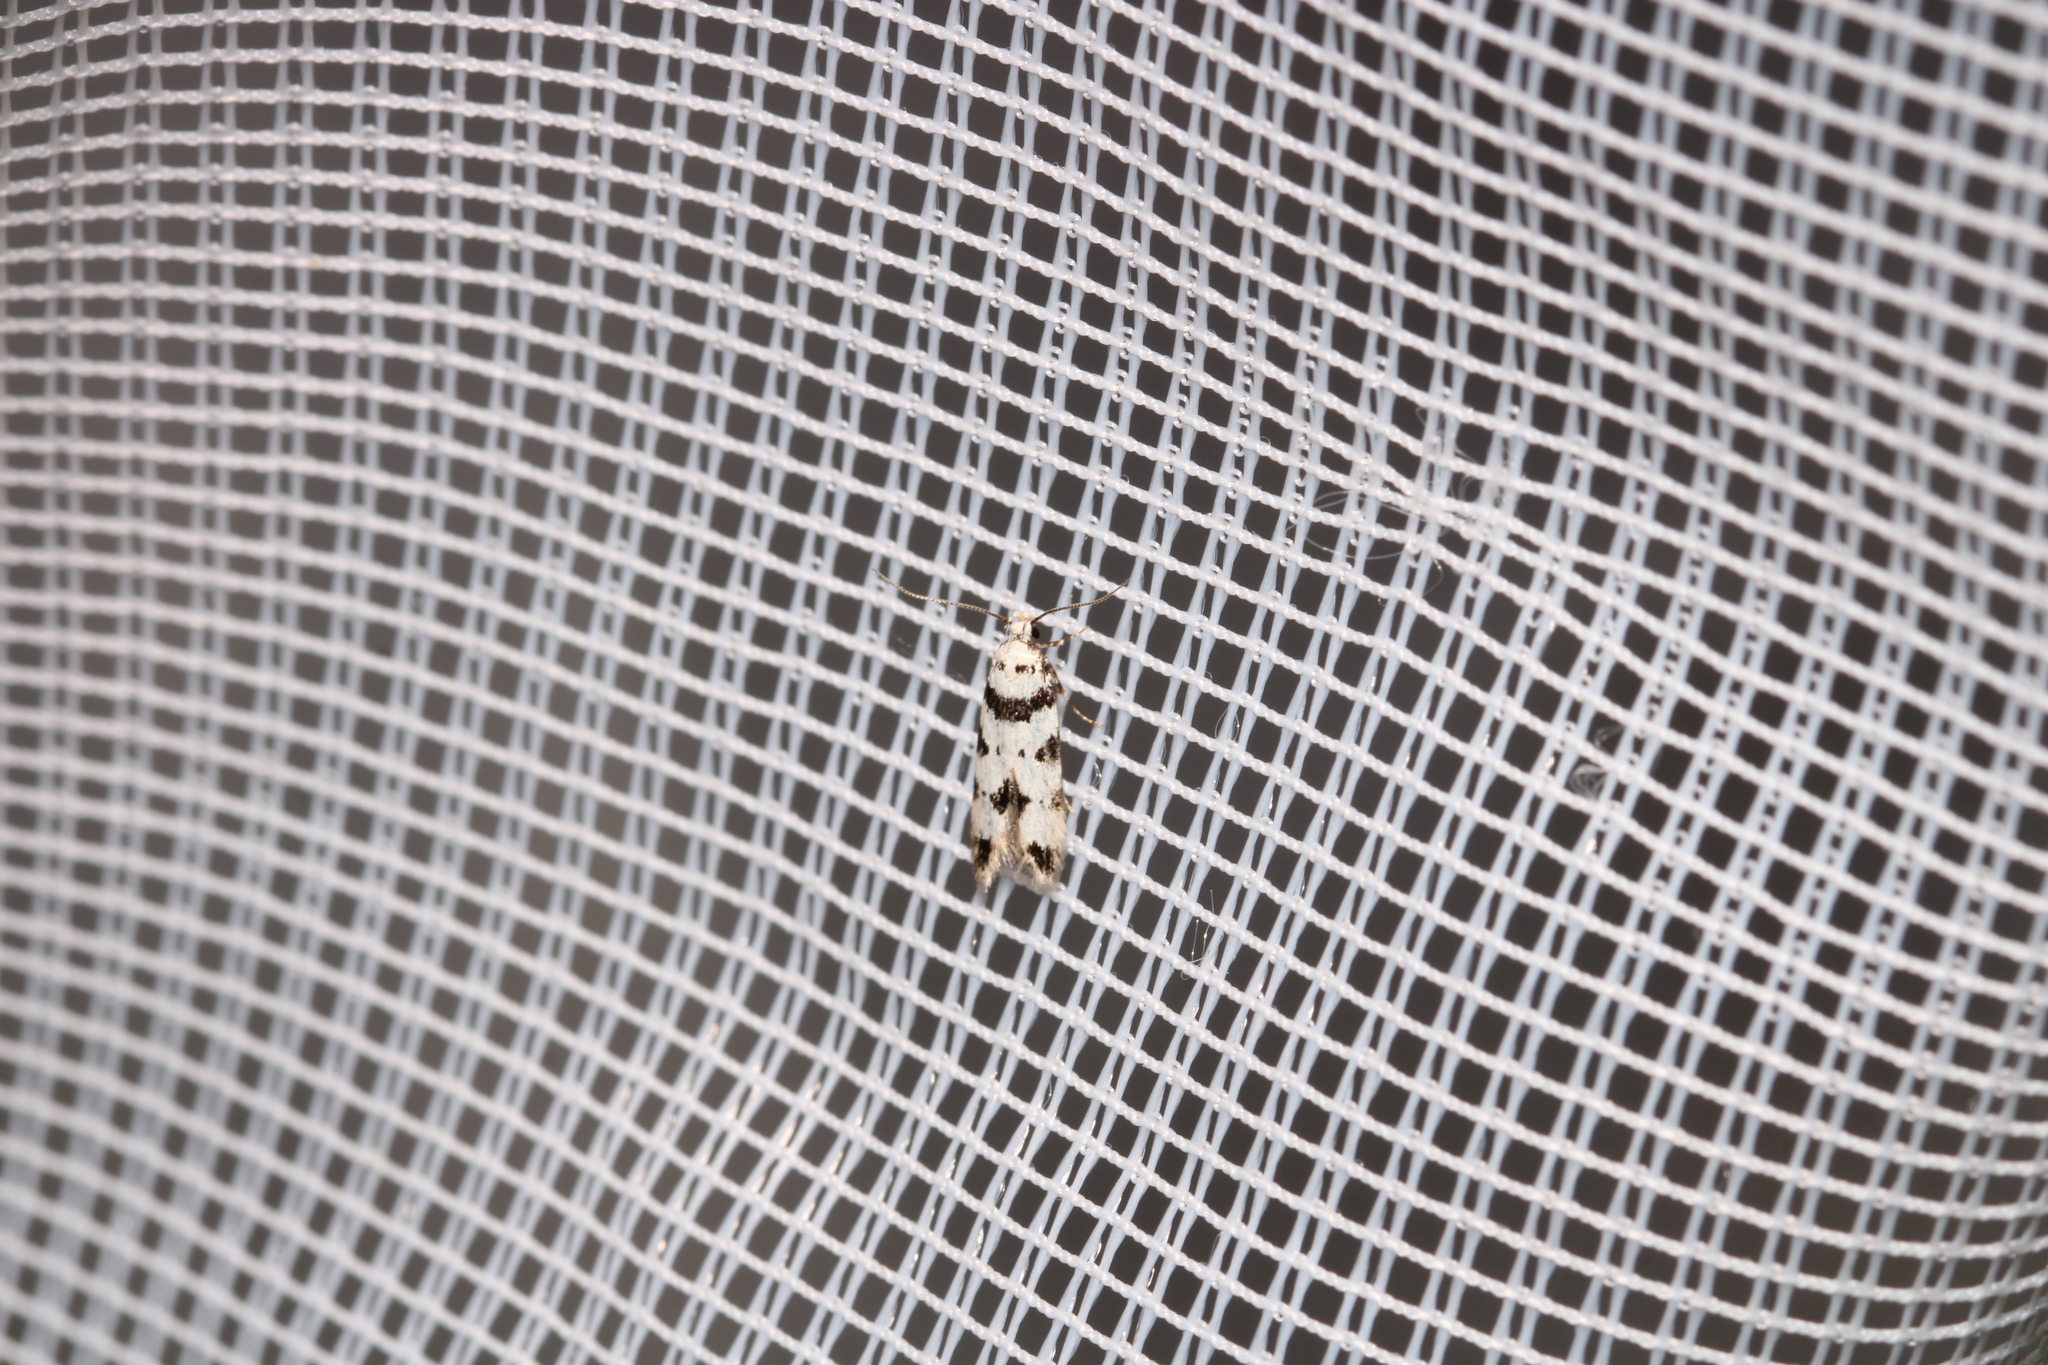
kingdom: Animalia
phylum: Arthropoda
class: Insecta
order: Lepidoptera
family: Gelechiidae
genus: Pseudotelphusa
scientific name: Pseudotelphusa scalella
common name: Black-spotted groundling
